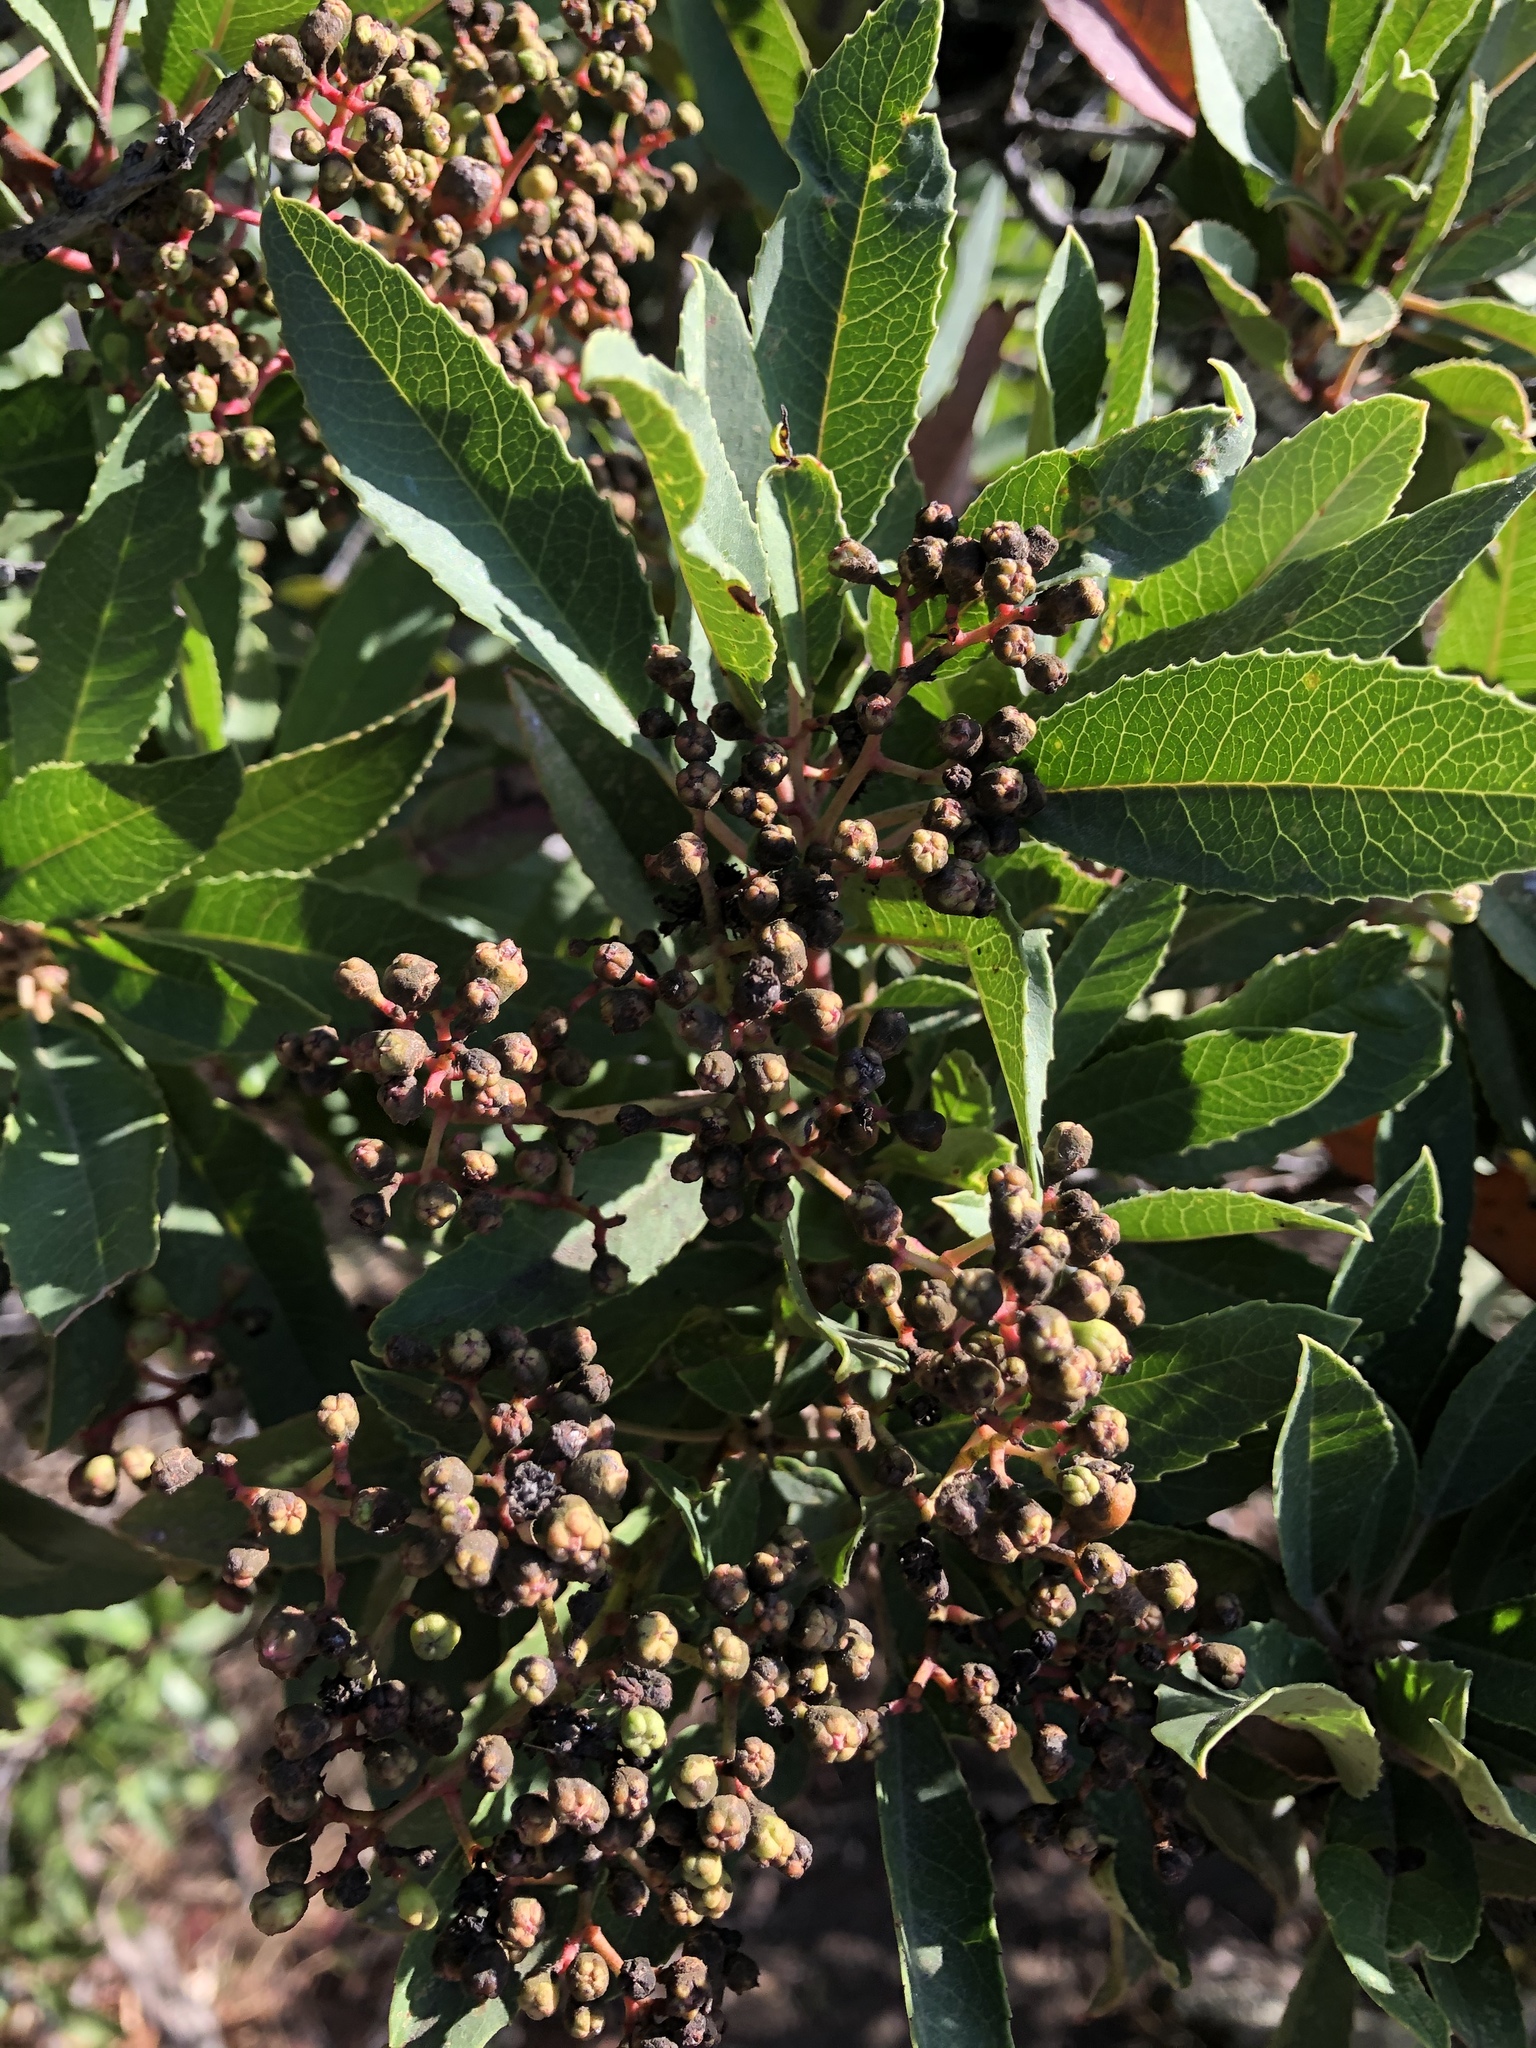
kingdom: Plantae
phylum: Tracheophyta
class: Magnoliopsida
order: Rosales
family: Rosaceae
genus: Heteromeles
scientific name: Heteromeles arbutifolia
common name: California-holly
